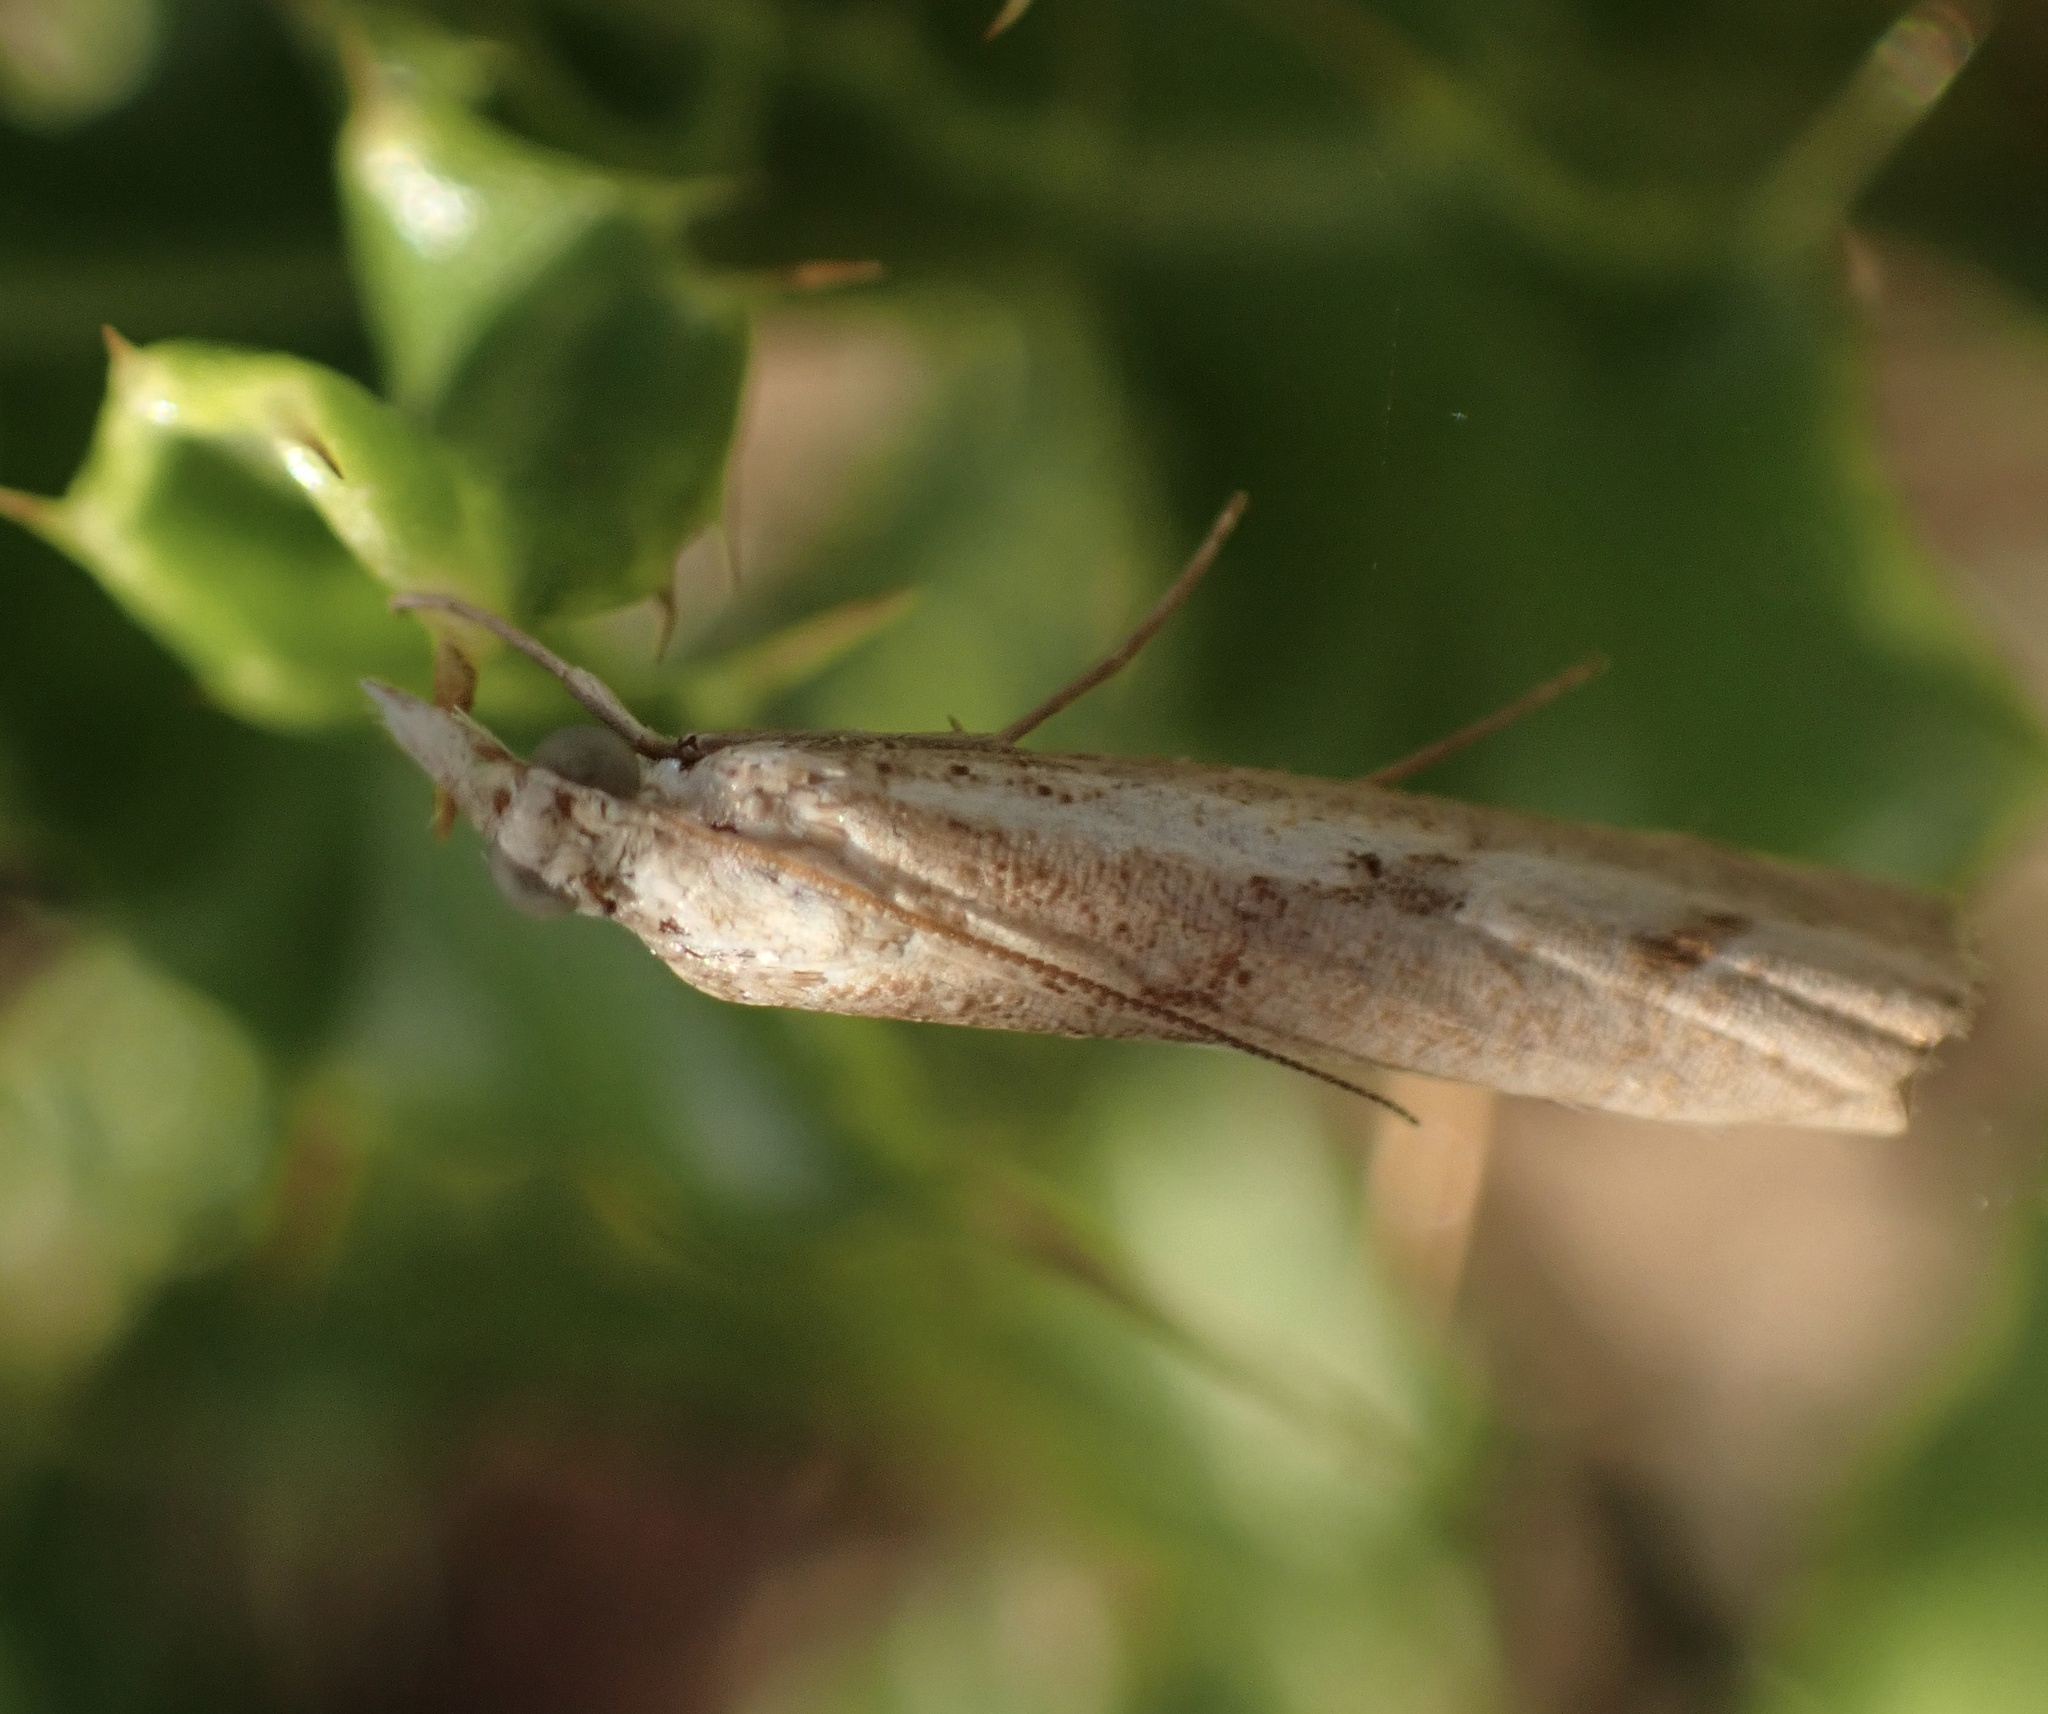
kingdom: Animalia
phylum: Arthropoda
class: Insecta
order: Lepidoptera
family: Crambidae
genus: Agriphila
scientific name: Agriphila inquinatella
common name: Barred grass-veneer
